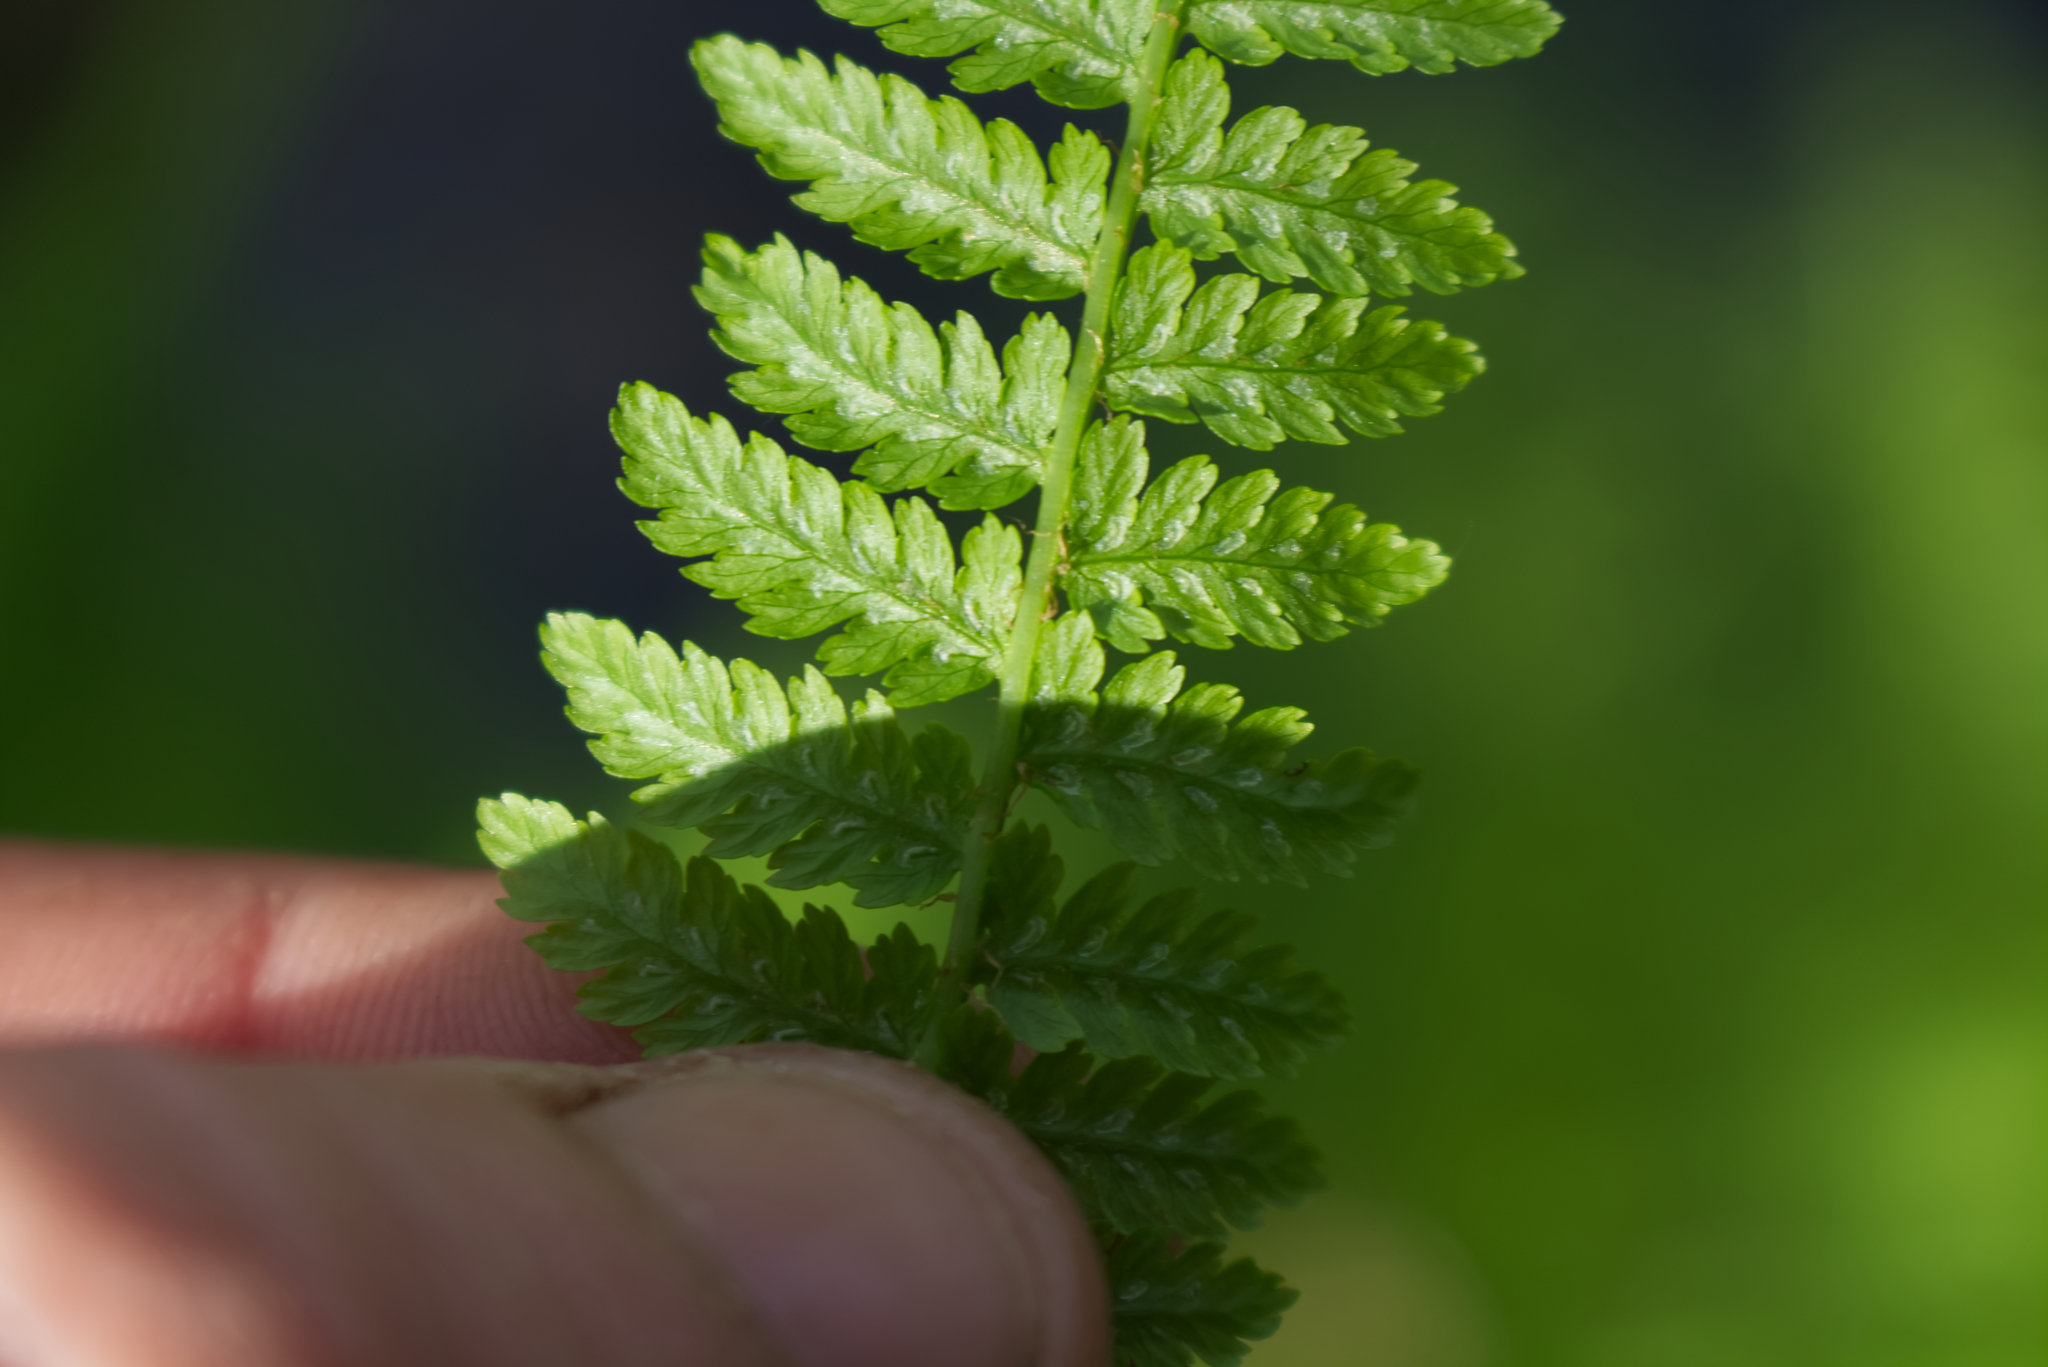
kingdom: Plantae
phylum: Tracheophyta
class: Polypodiopsida
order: Polypodiales
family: Athyriaceae
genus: Athyrium
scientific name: Athyrium filix-femina
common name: Lady fern
